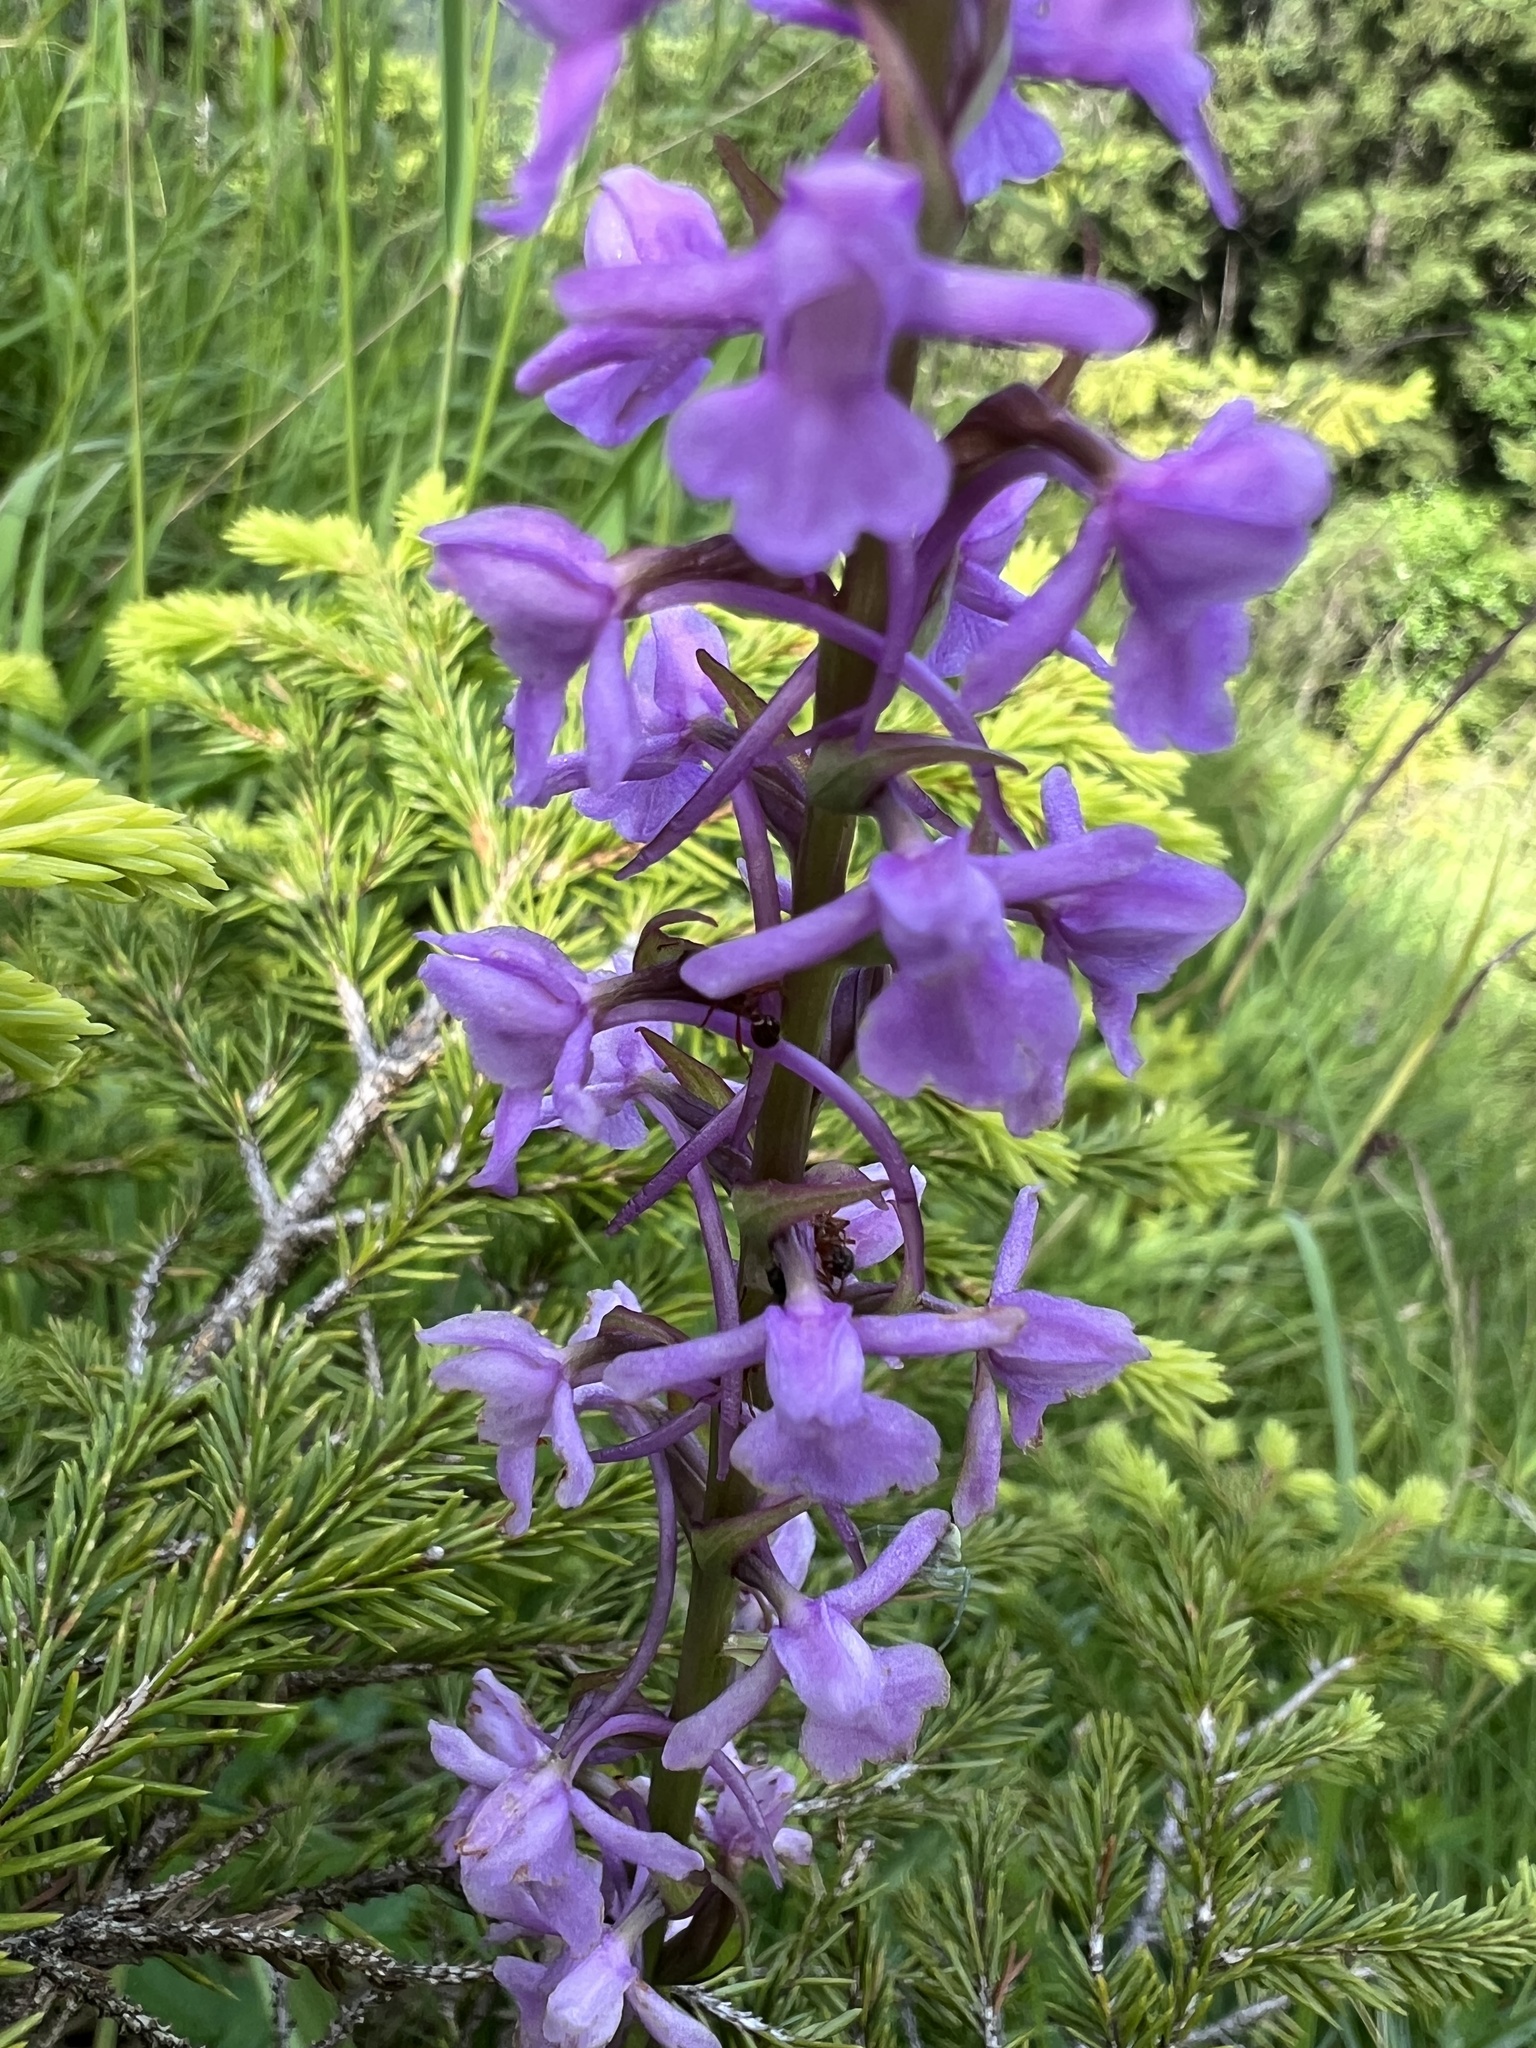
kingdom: Plantae
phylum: Tracheophyta
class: Liliopsida
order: Asparagales
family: Orchidaceae
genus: Gymnadenia
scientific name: Gymnadenia conopsea
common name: Fragrant orchid
